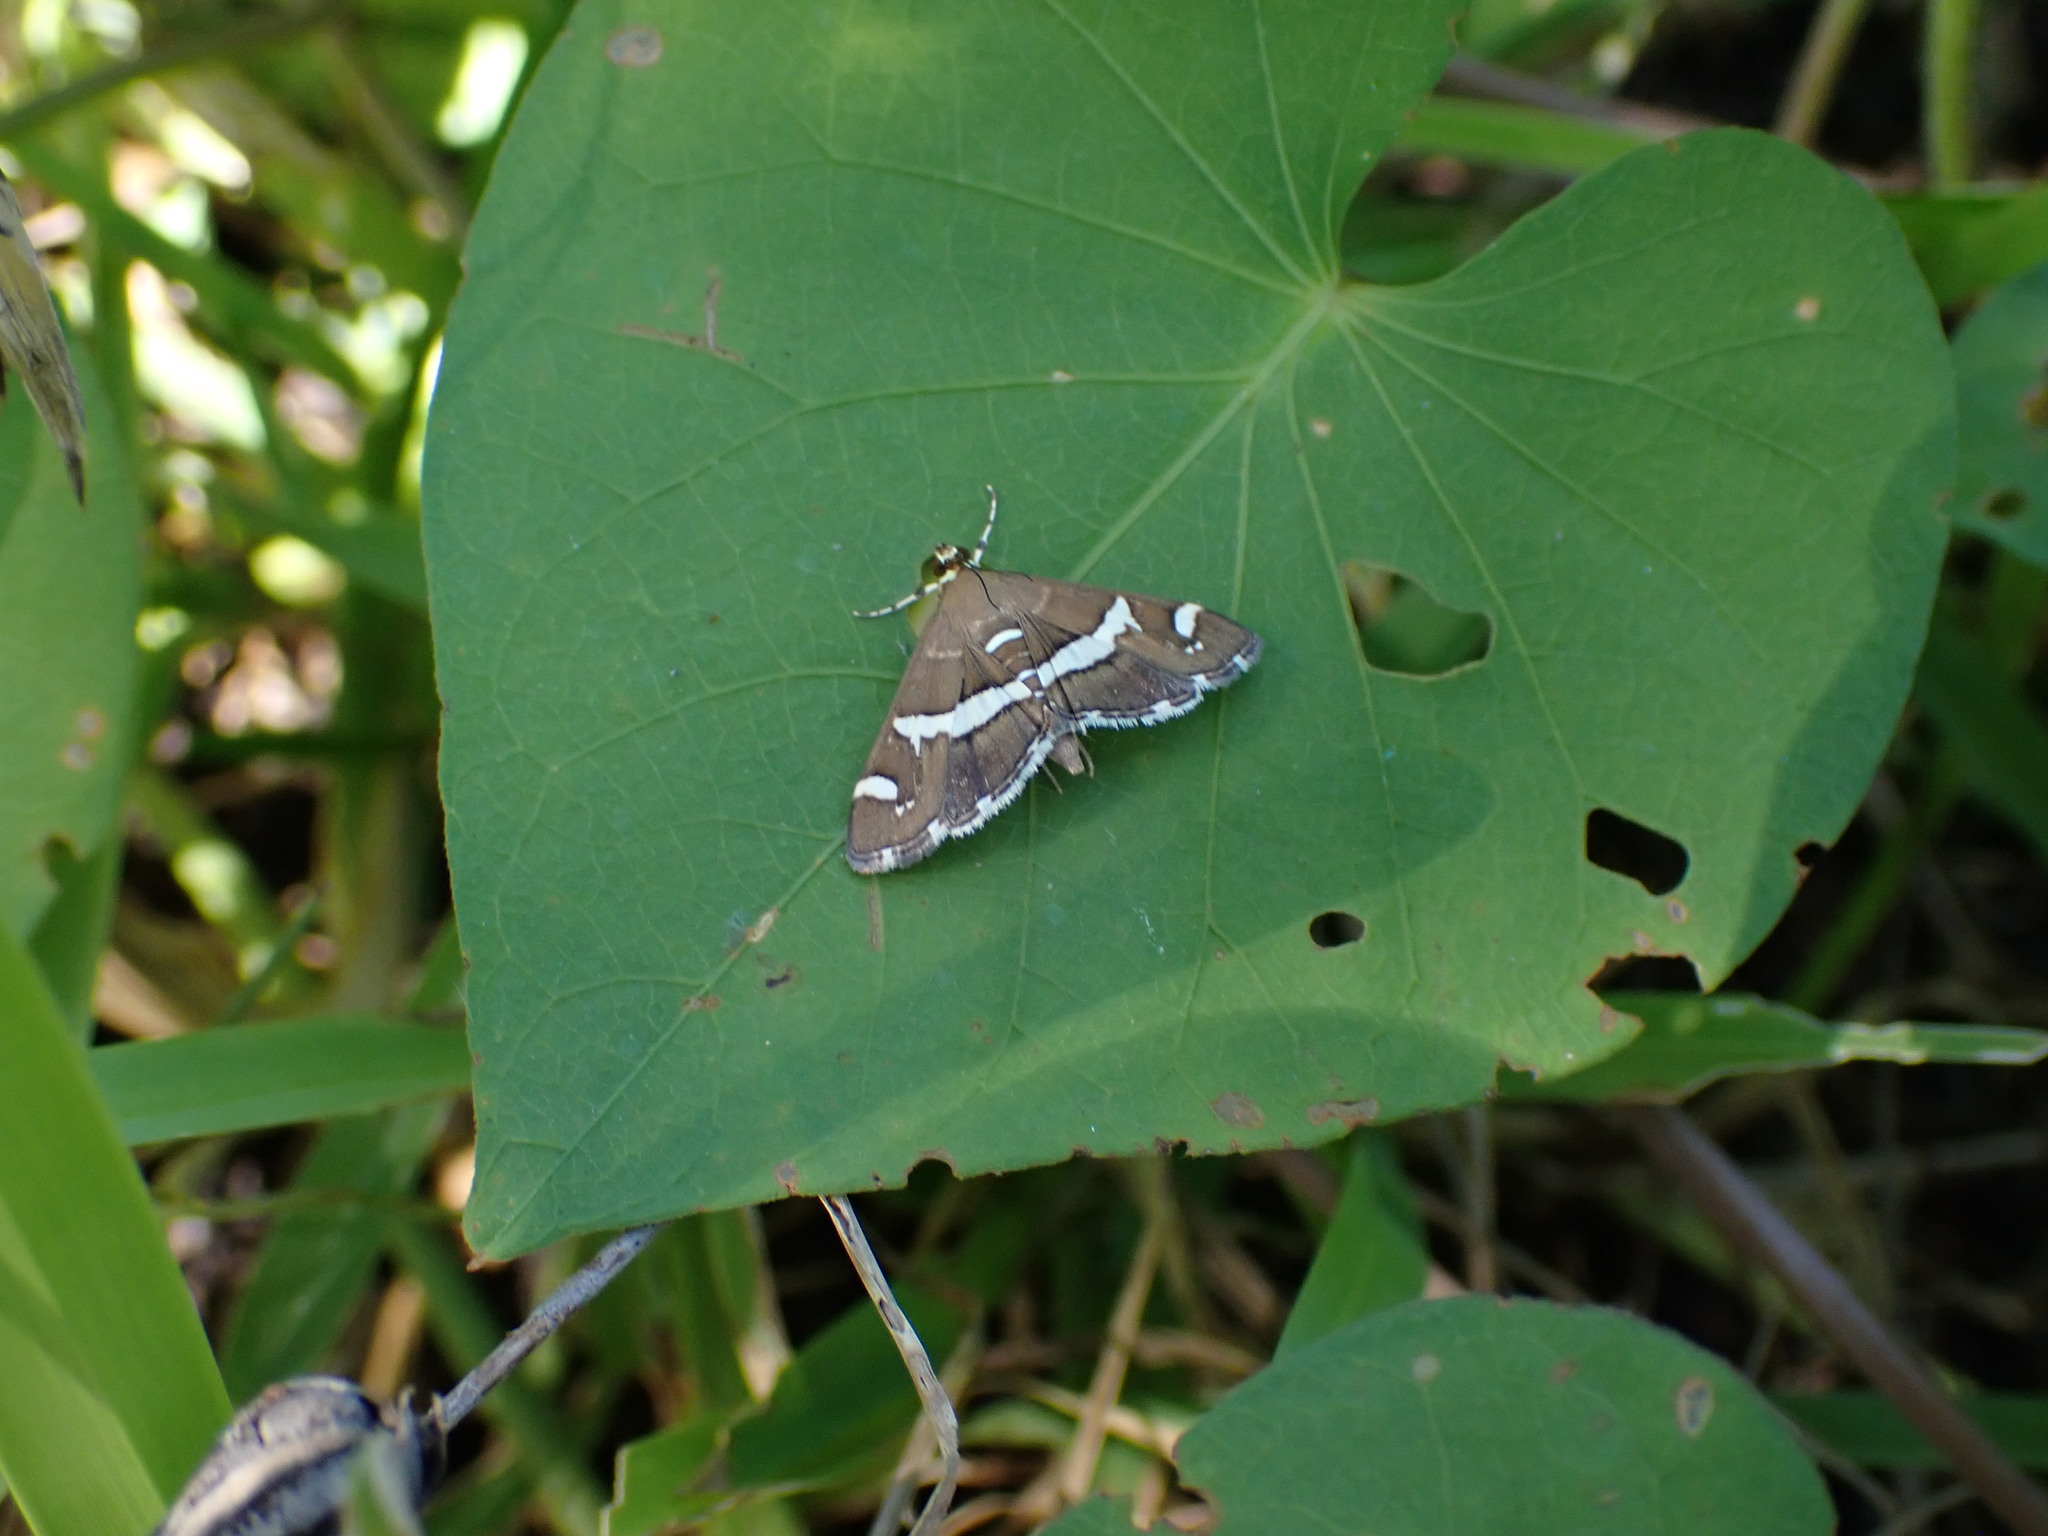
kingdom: Animalia
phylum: Arthropoda
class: Insecta
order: Lepidoptera
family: Crambidae
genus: Spoladea
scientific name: Spoladea recurvalis
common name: Beet webworm moth
